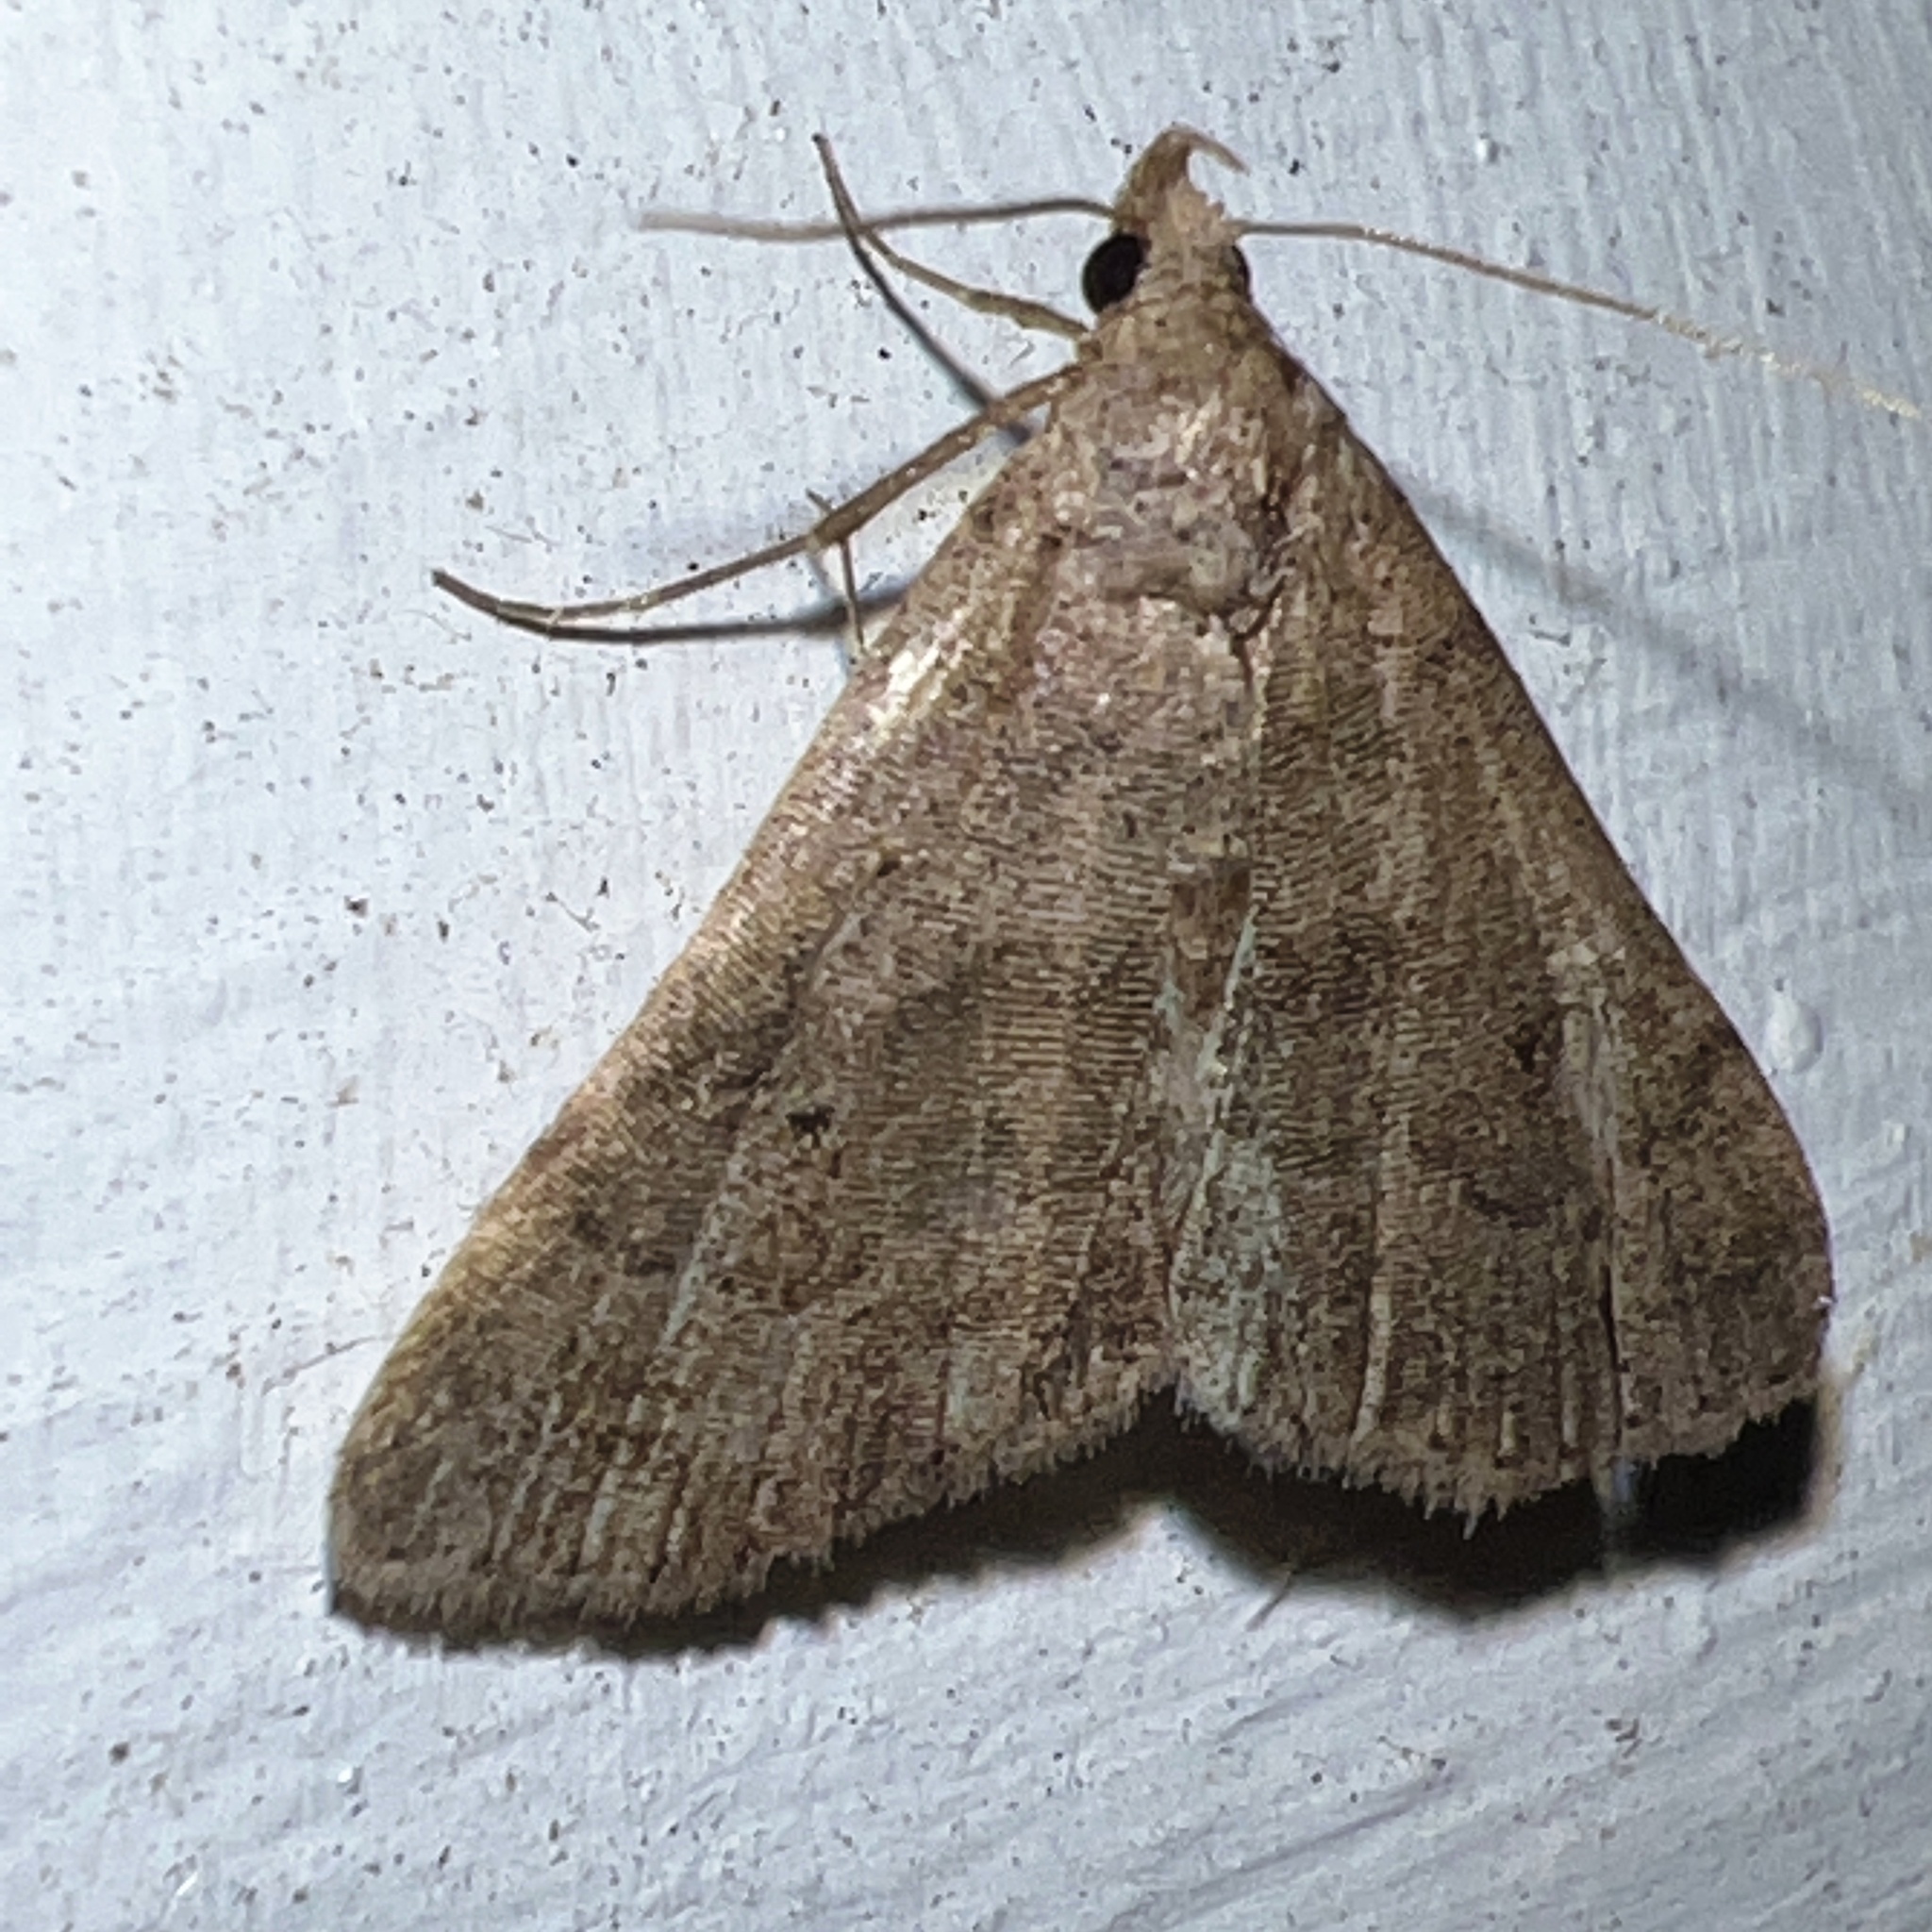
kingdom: Animalia
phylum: Arthropoda
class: Insecta
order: Lepidoptera
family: Erebidae
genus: Bleptina
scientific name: Bleptina caradrinalis
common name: Bent-winged owlet
